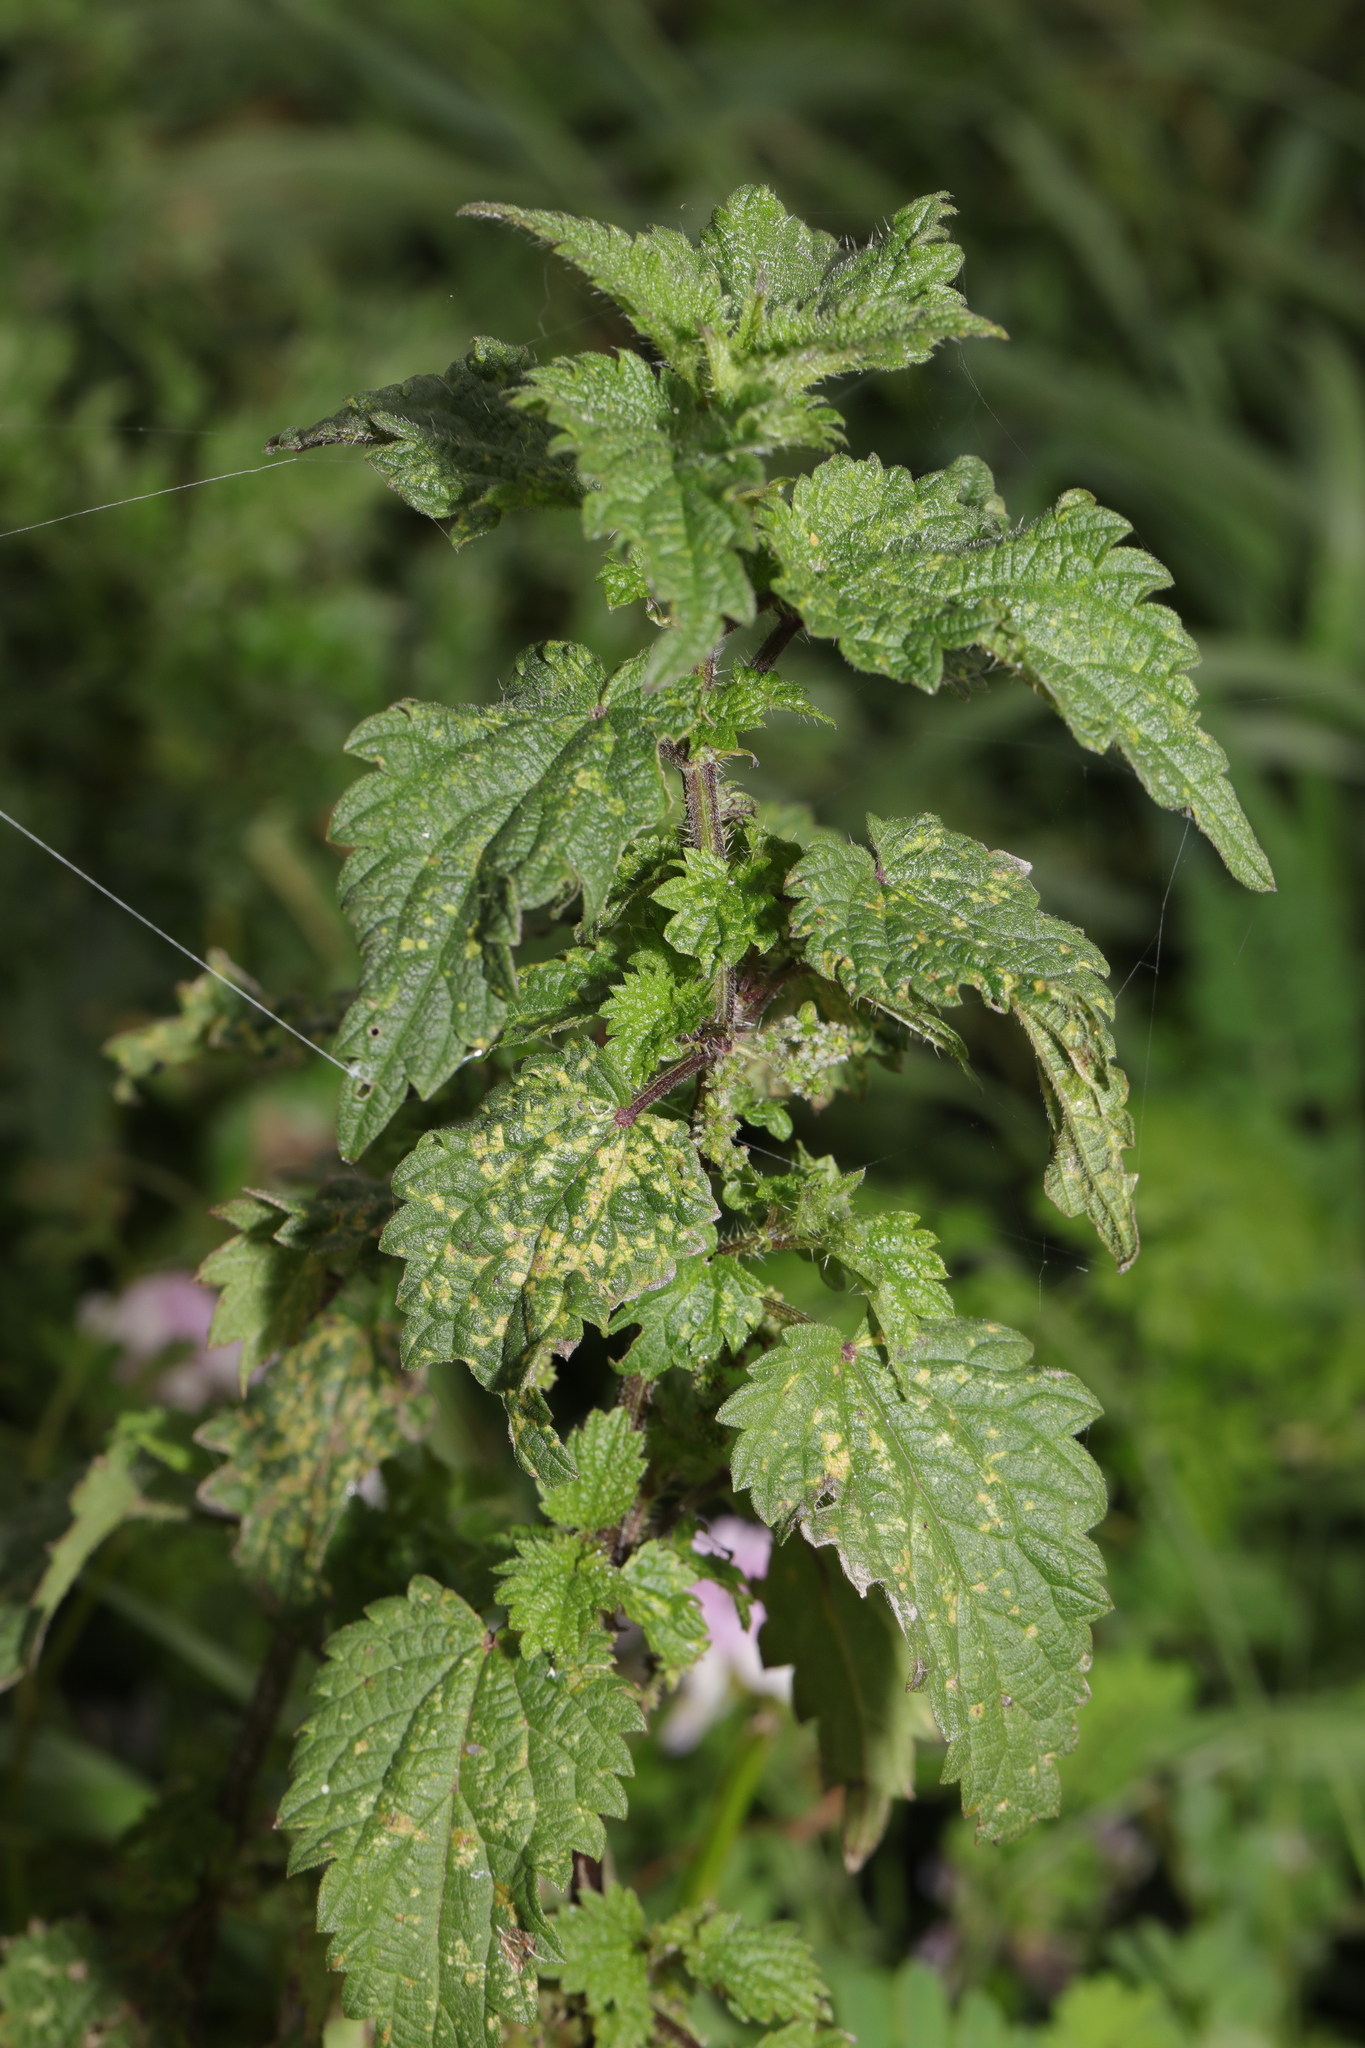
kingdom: Plantae
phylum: Tracheophyta
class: Magnoliopsida
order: Rosales
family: Urticaceae
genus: Urtica
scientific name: Urtica dioica
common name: Common nettle
